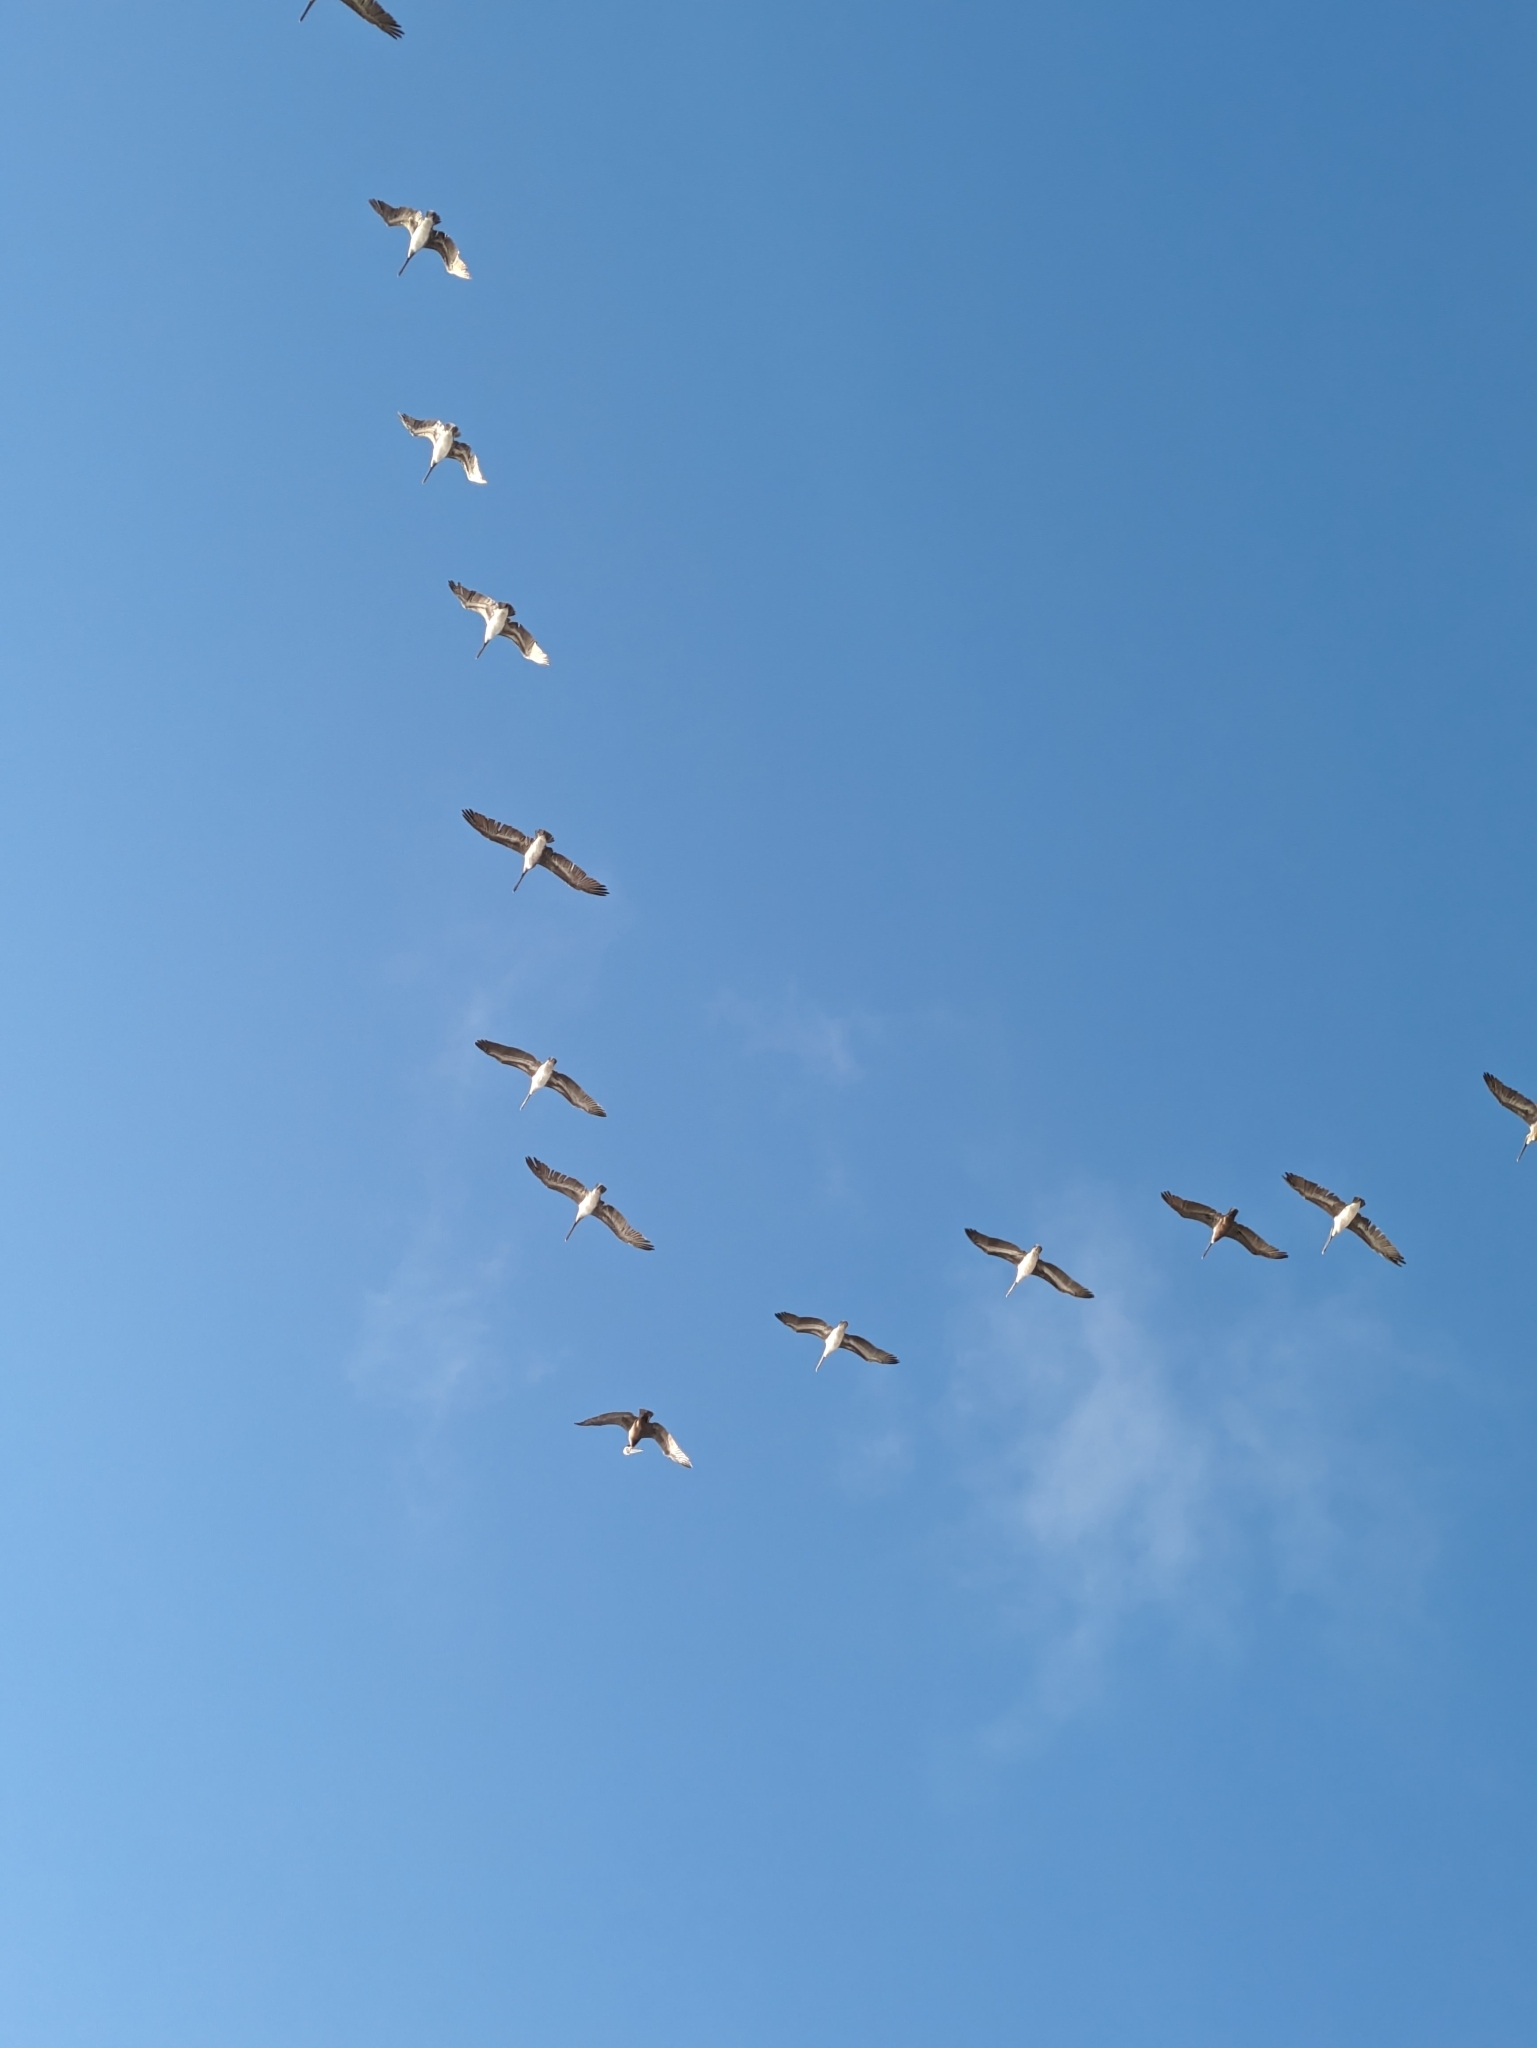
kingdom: Animalia
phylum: Chordata
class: Aves
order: Pelecaniformes
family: Pelecanidae
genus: Pelecanus
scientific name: Pelecanus occidentalis
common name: Brown pelican
